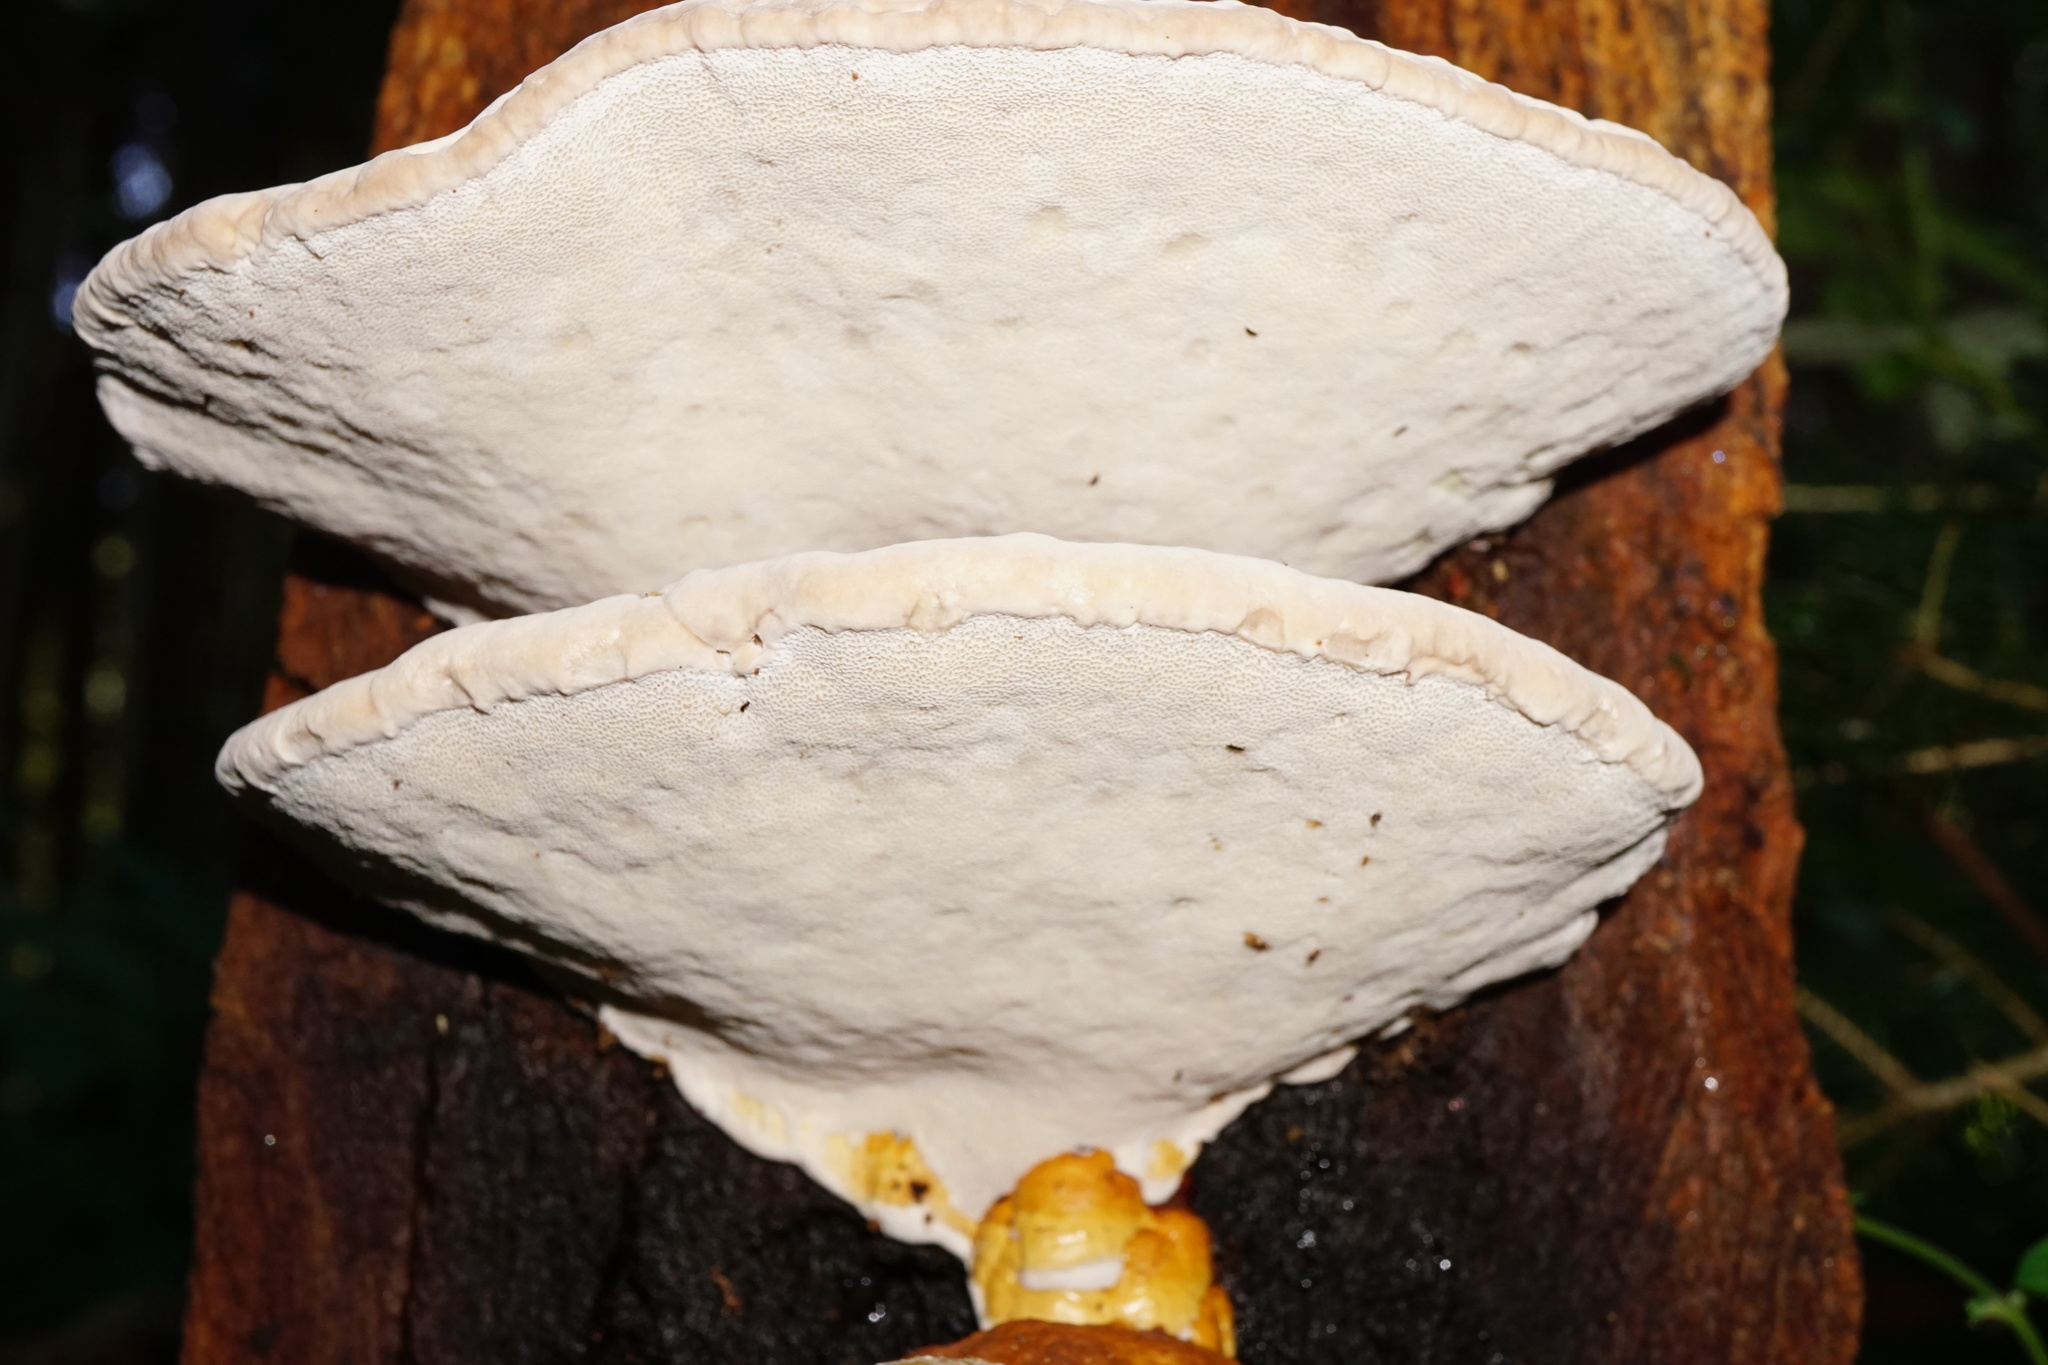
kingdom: Fungi
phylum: Basidiomycota
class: Agaricomycetes
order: Polyporales
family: Fomitopsidaceae
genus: Fomitopsis
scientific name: Fomitopsis pinicola
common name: Red-belted bracket
